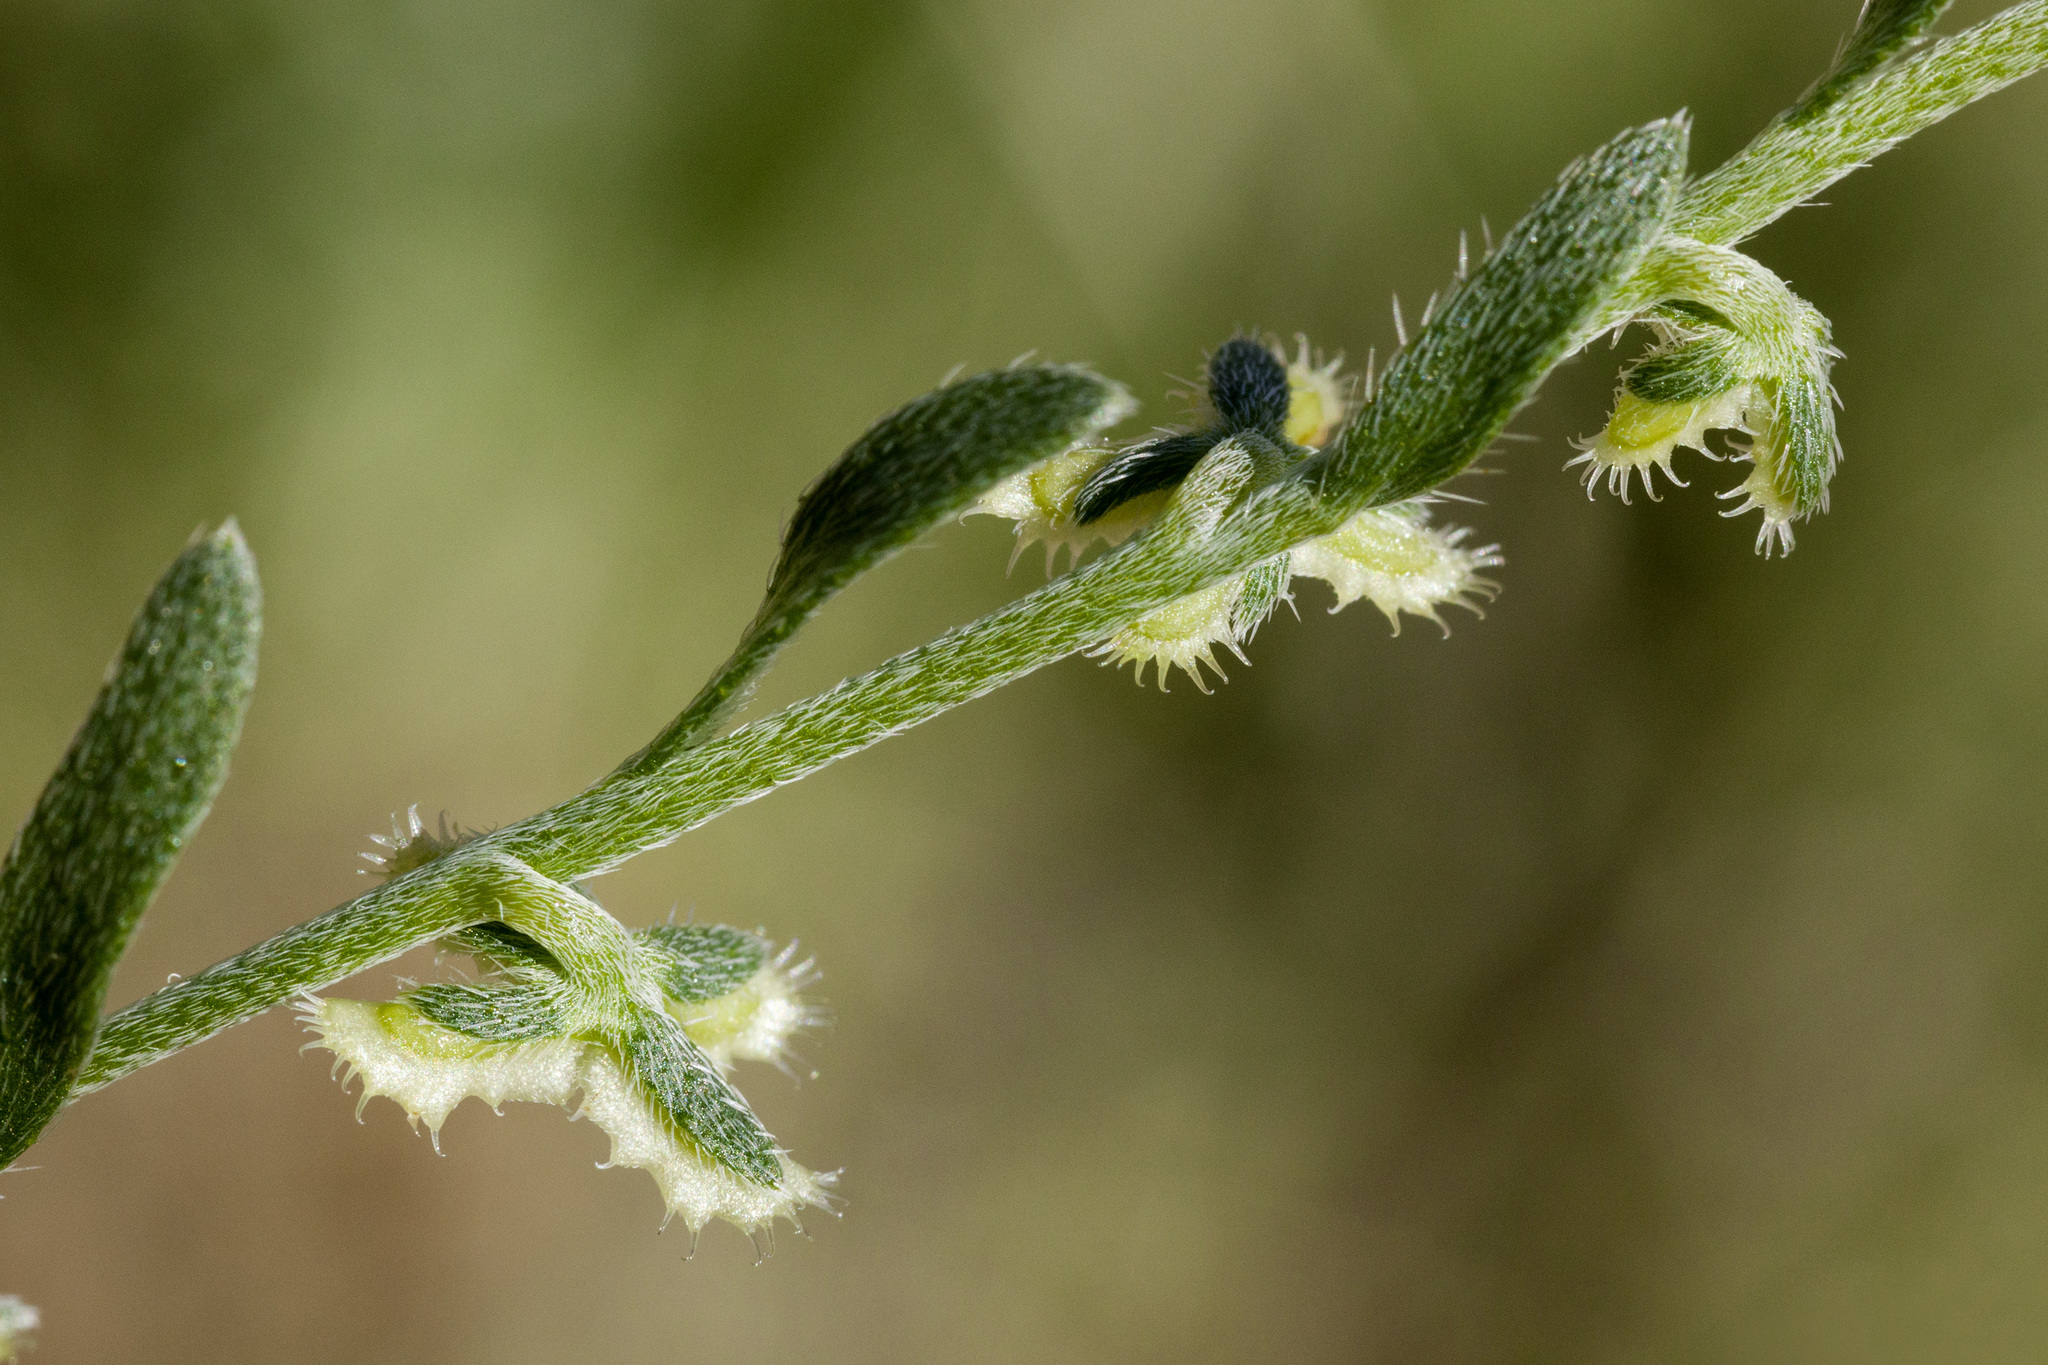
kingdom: Plantae
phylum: Tracheophyta
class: Magnoliopsida
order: Boraginales
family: Boraginaceae
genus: Pectocarya
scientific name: Pectocarya platycarpa
